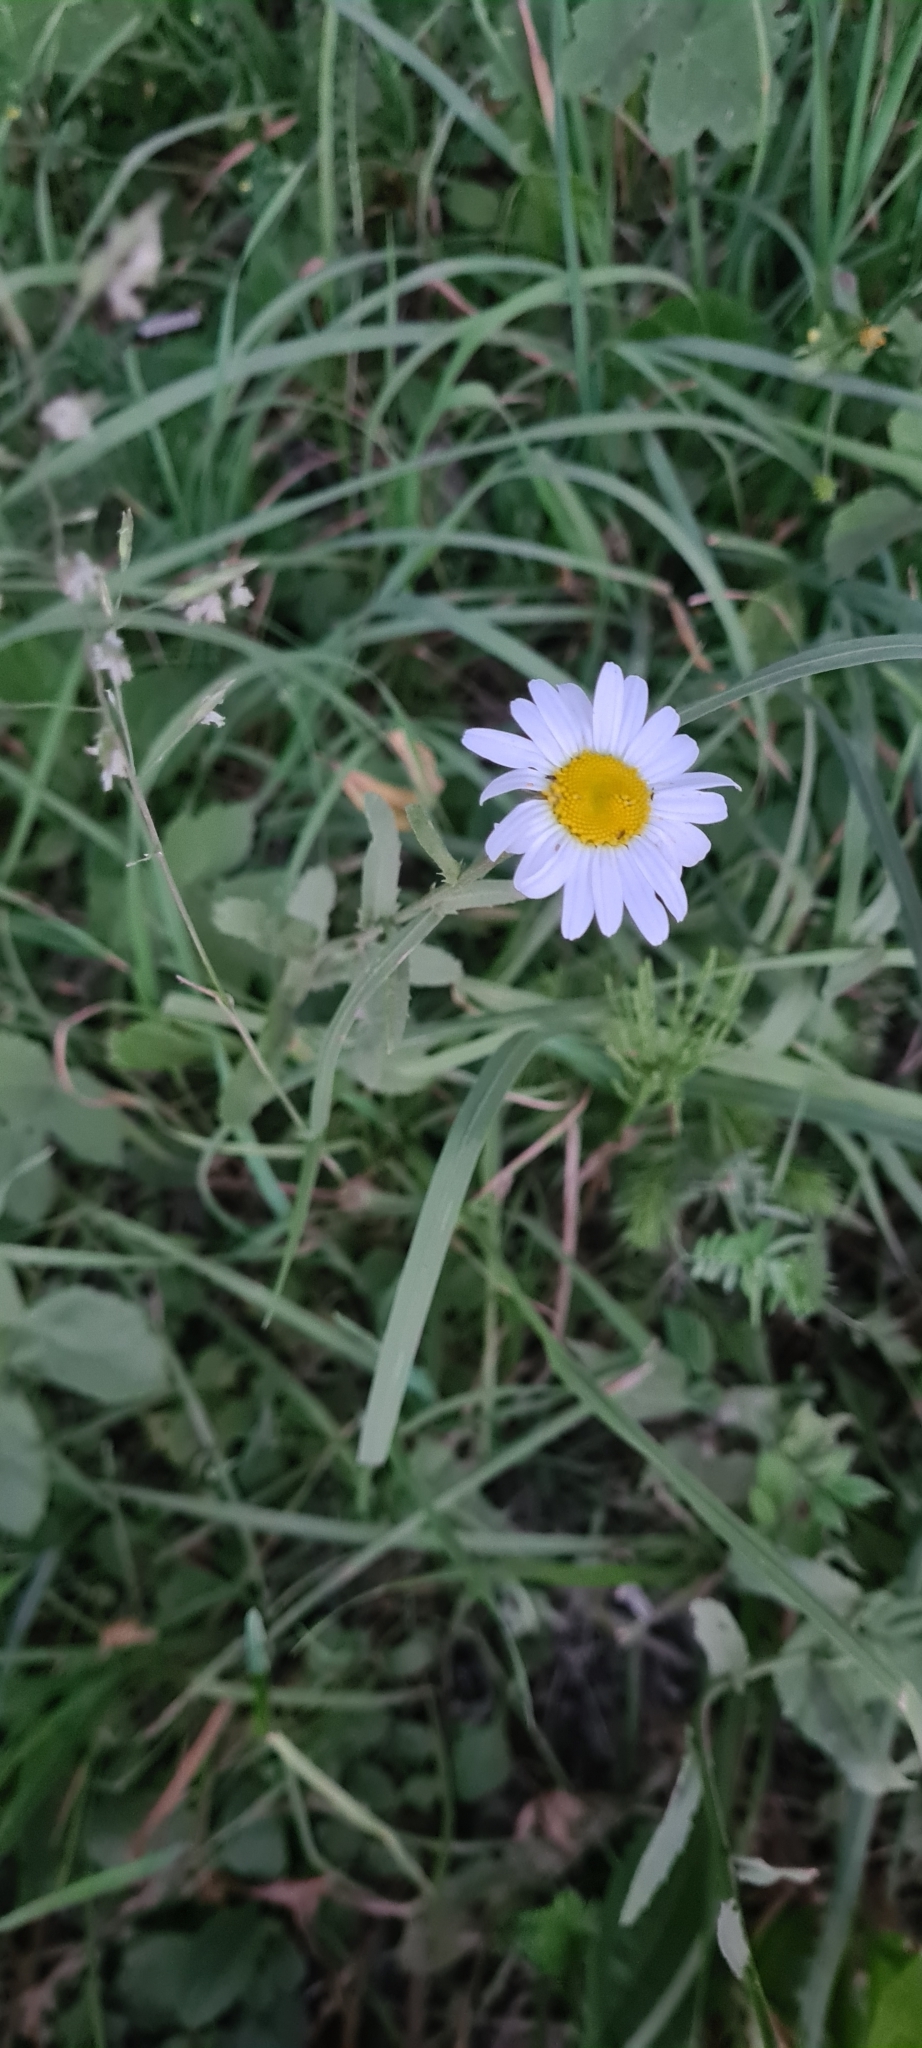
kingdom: Plantae
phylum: Tracheophyta
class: Magnoliopsida
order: Asterales
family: Asteraceae
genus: Leucanthemum
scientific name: Leucanthemum vulgare
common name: Oxeye daisy
